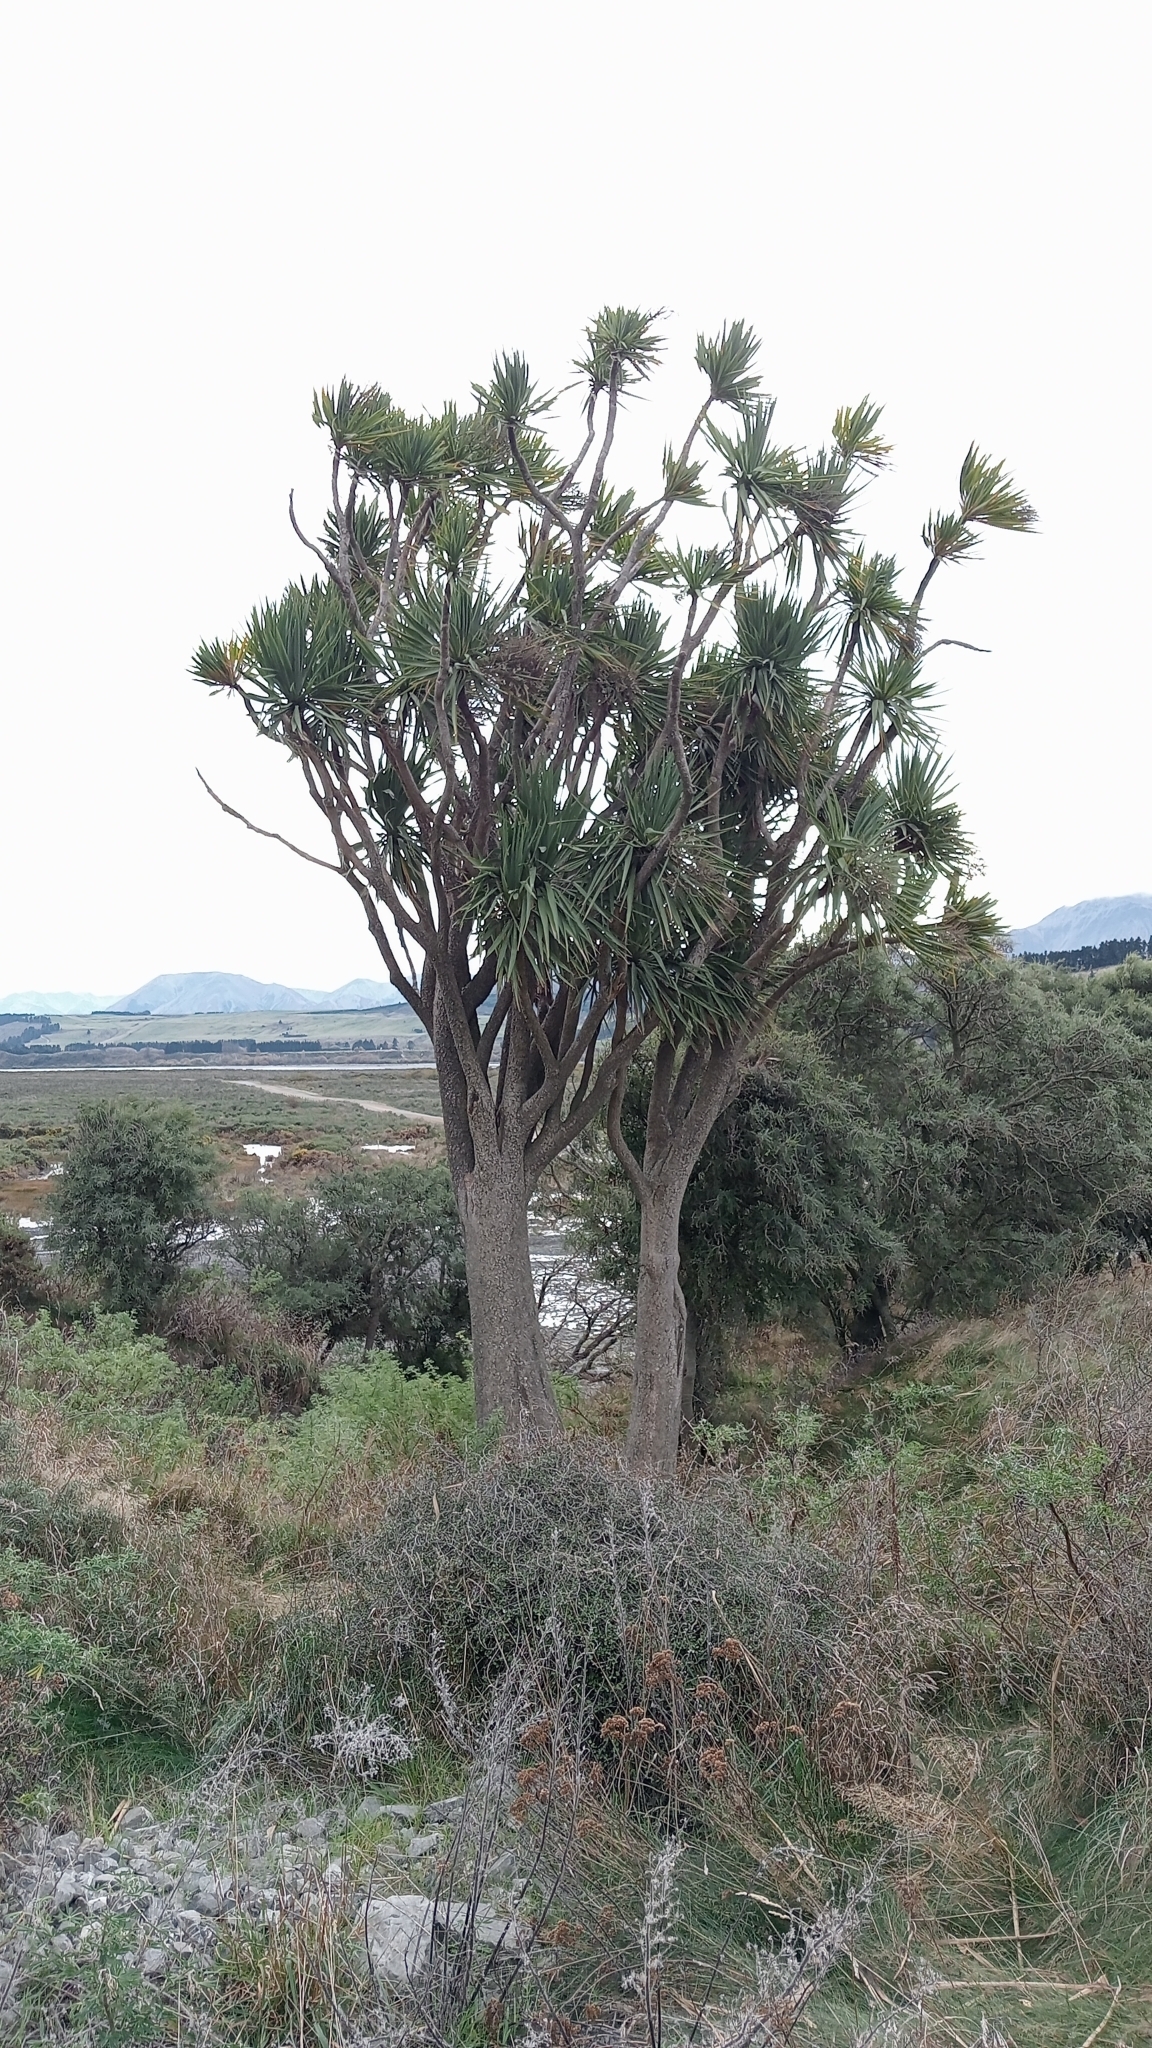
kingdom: Plantae
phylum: Tracheophyta
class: Liliopsida
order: Asparagales
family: Asparagaceae
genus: Cordyline
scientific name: Cordyline australis
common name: Cabbage-palm
